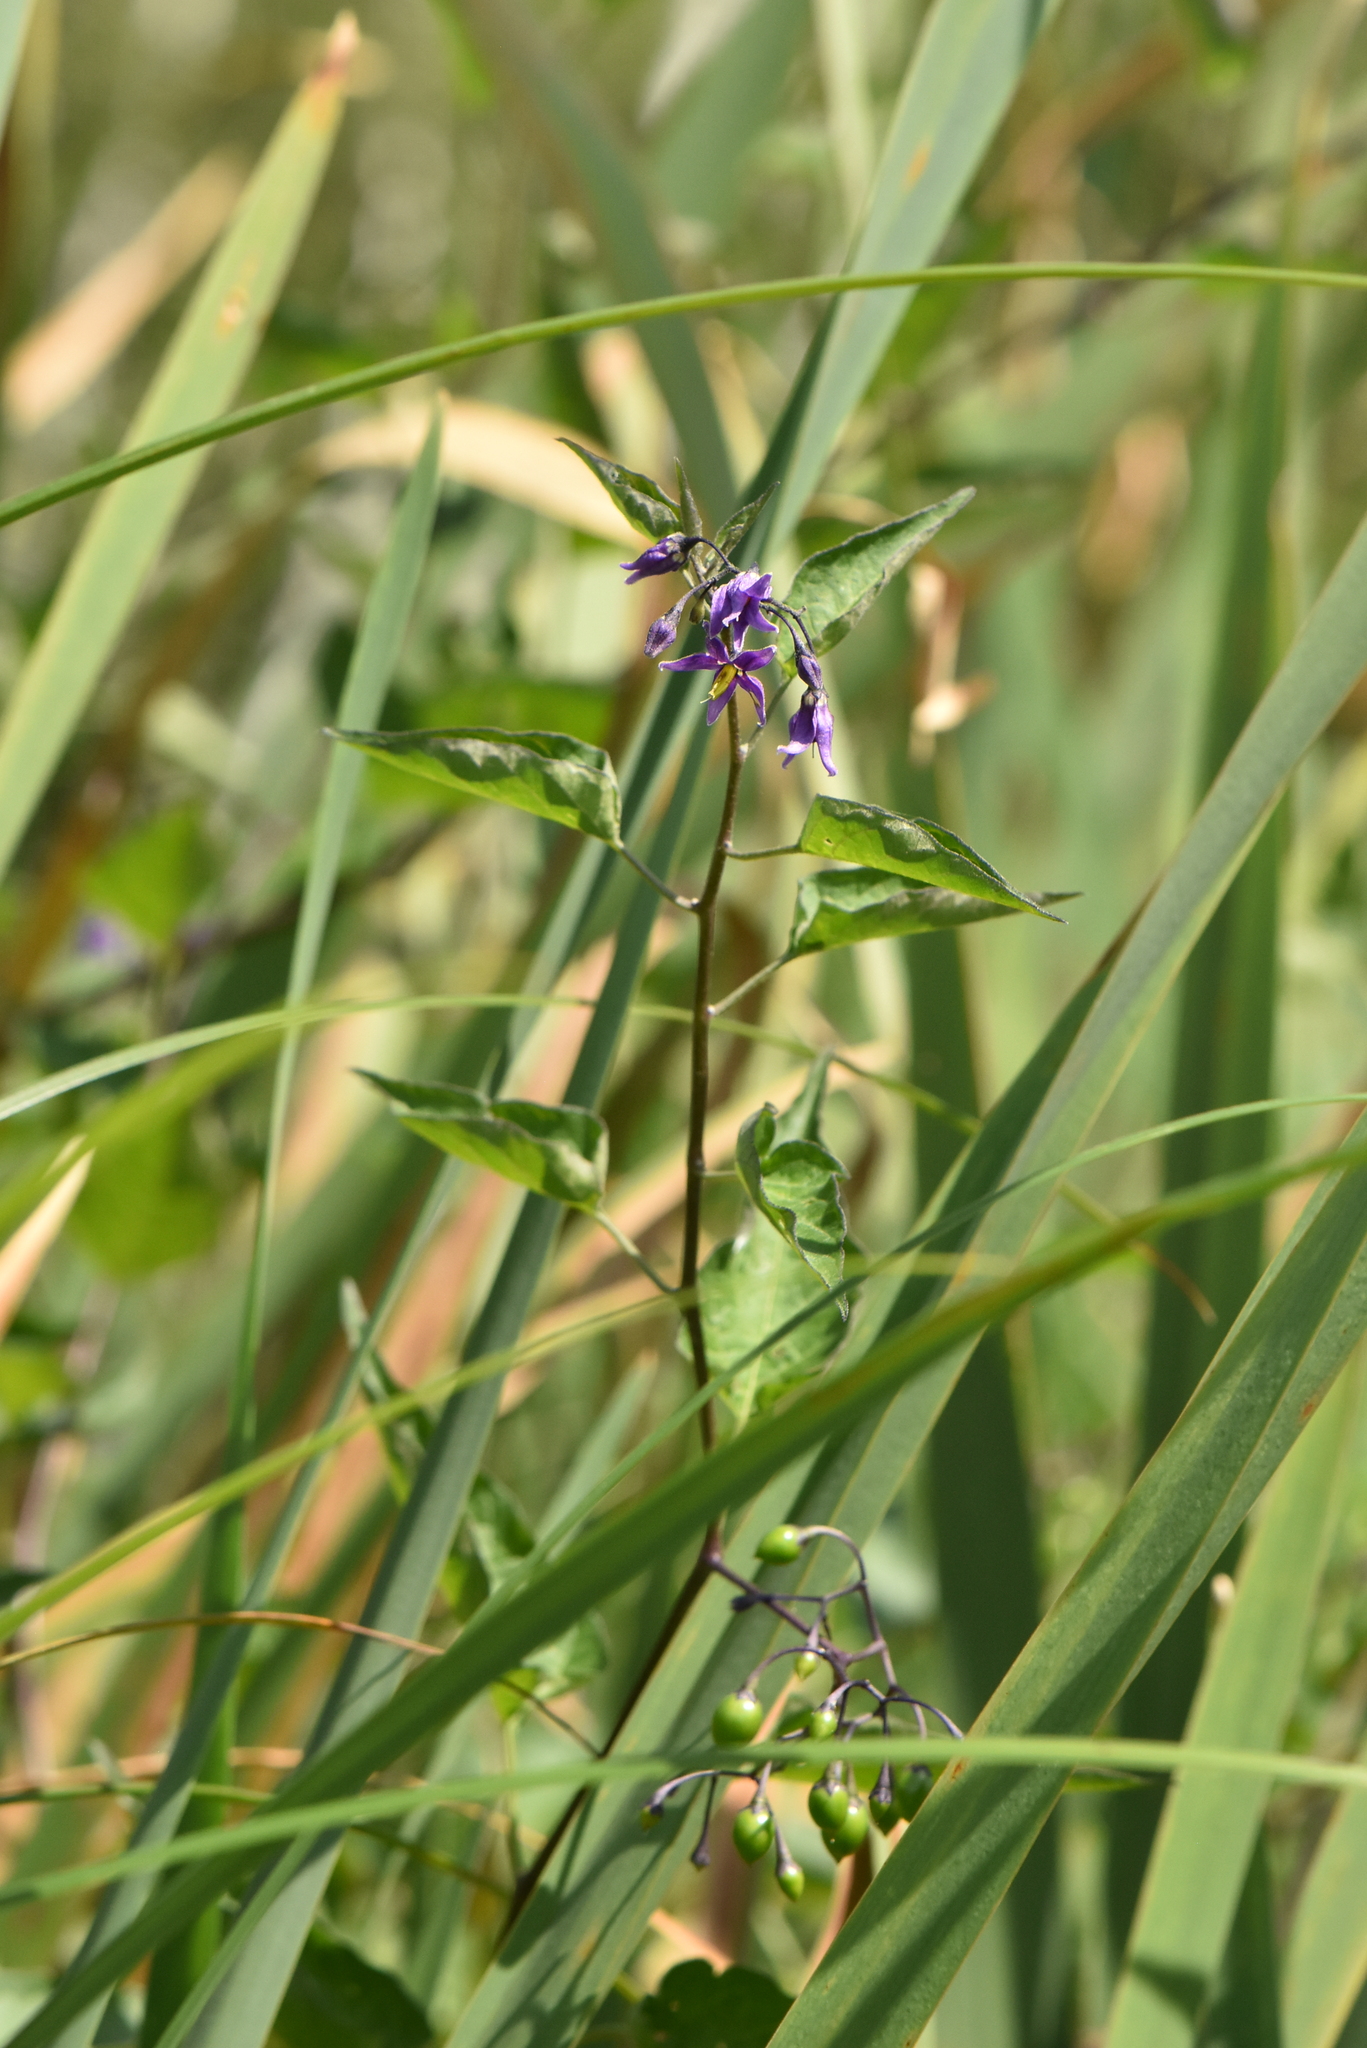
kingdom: Plantae
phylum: Tracheophyta
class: Magnoliopsida
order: Solanales
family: Solanaceae
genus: Solanum
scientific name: Solanum dulcamara
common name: Climbing nightshade
